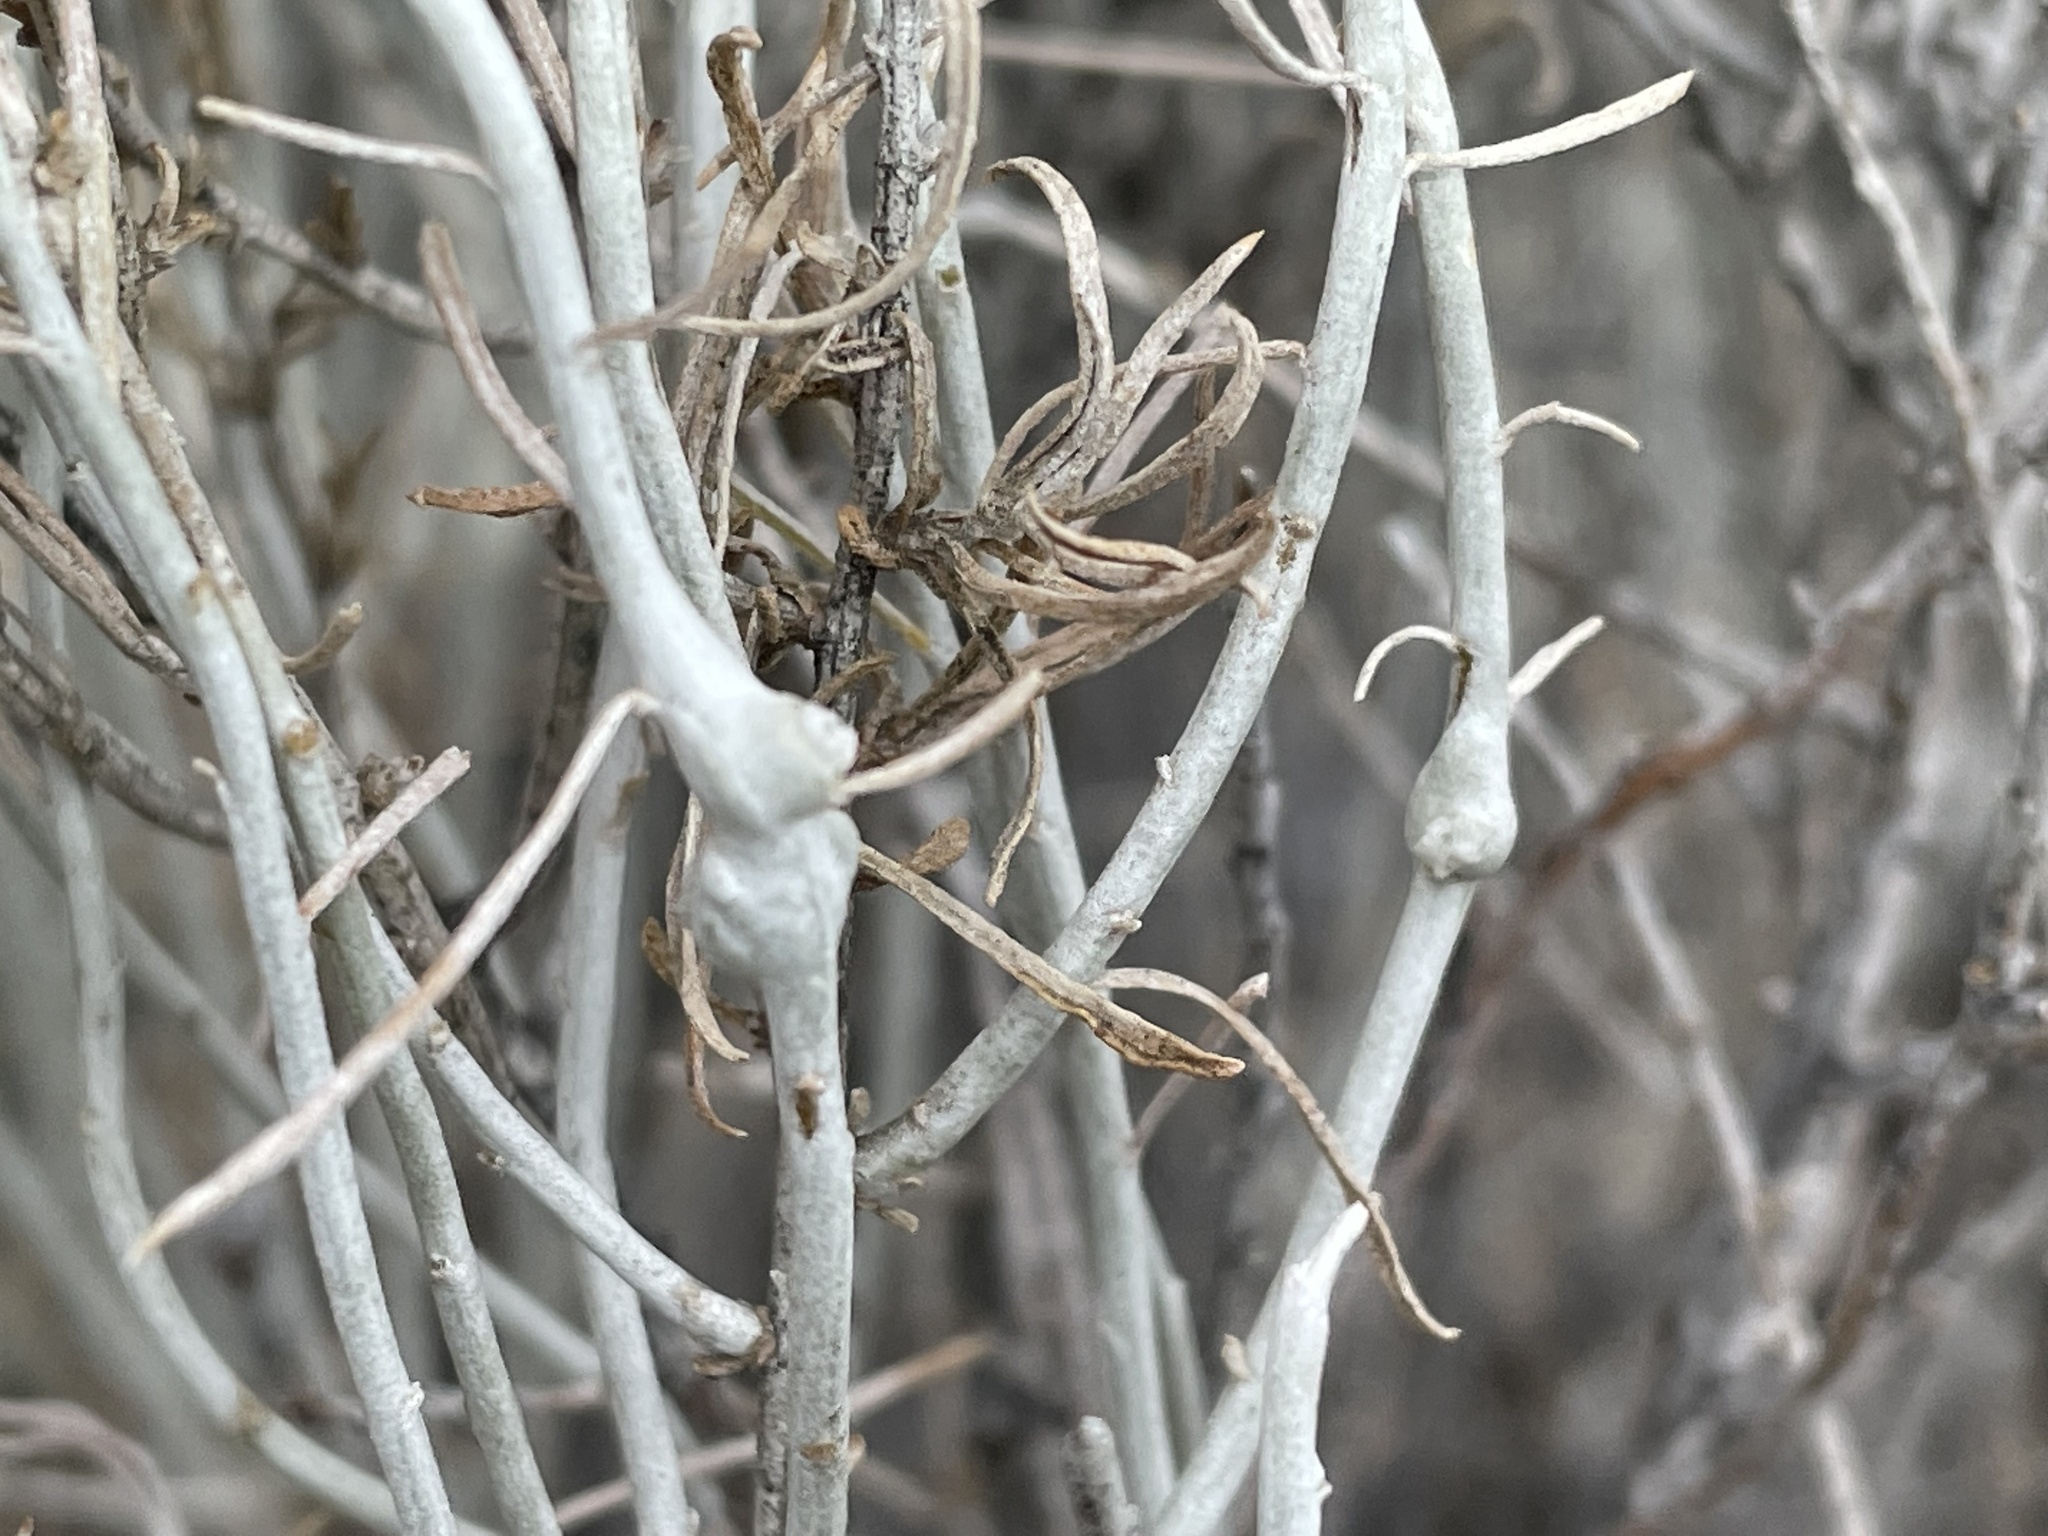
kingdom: Plantae
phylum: Tracheophyta
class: Magnoliopsida
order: Asterales
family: Asteraceae
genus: Ericameria
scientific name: Ericameria nauseosa
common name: Rubber rabbitbrush
